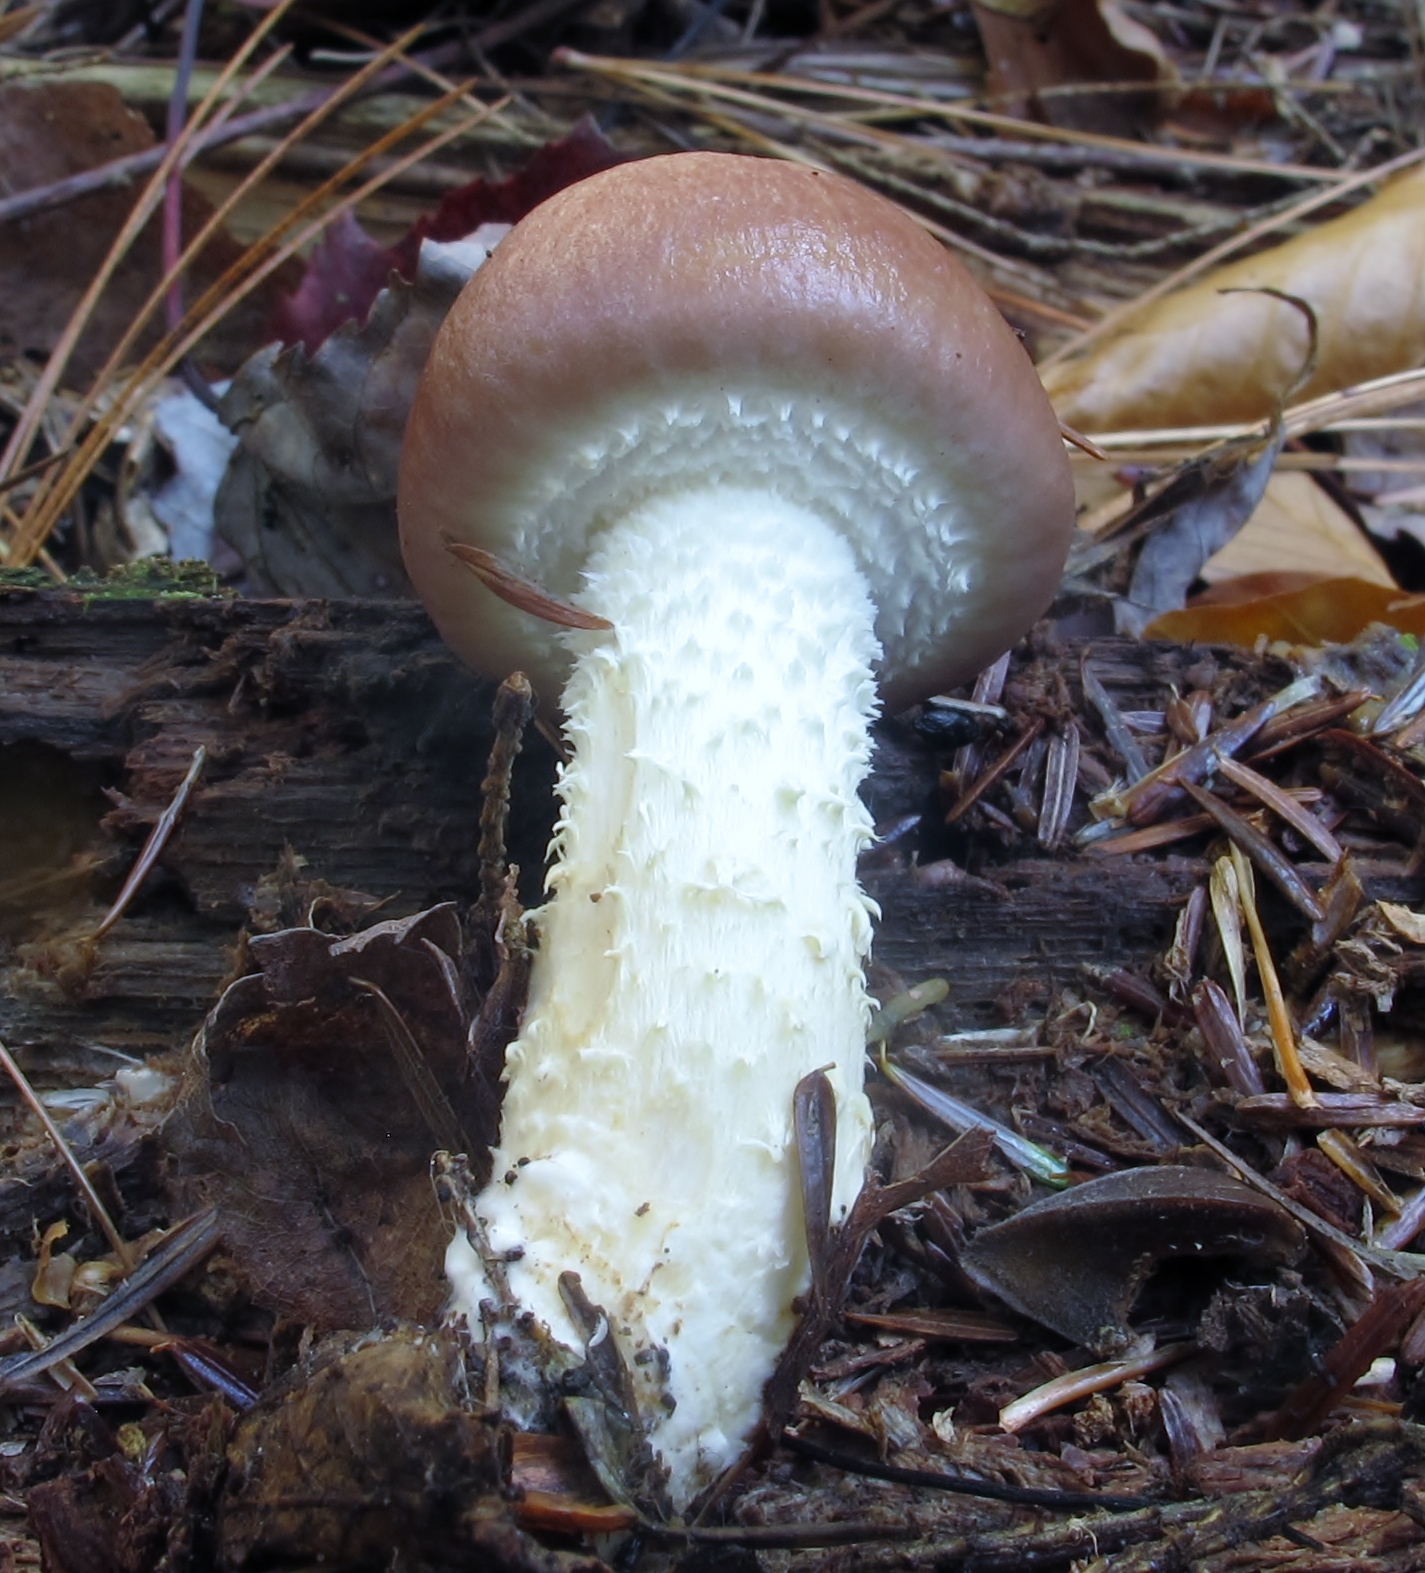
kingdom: Fungi
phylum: Basidiomycota
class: Agaricomycetes
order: Agaricales
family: Strophariaceae
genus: Stropharia
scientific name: Stropharia hornemannii
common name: Conifer roundhead
